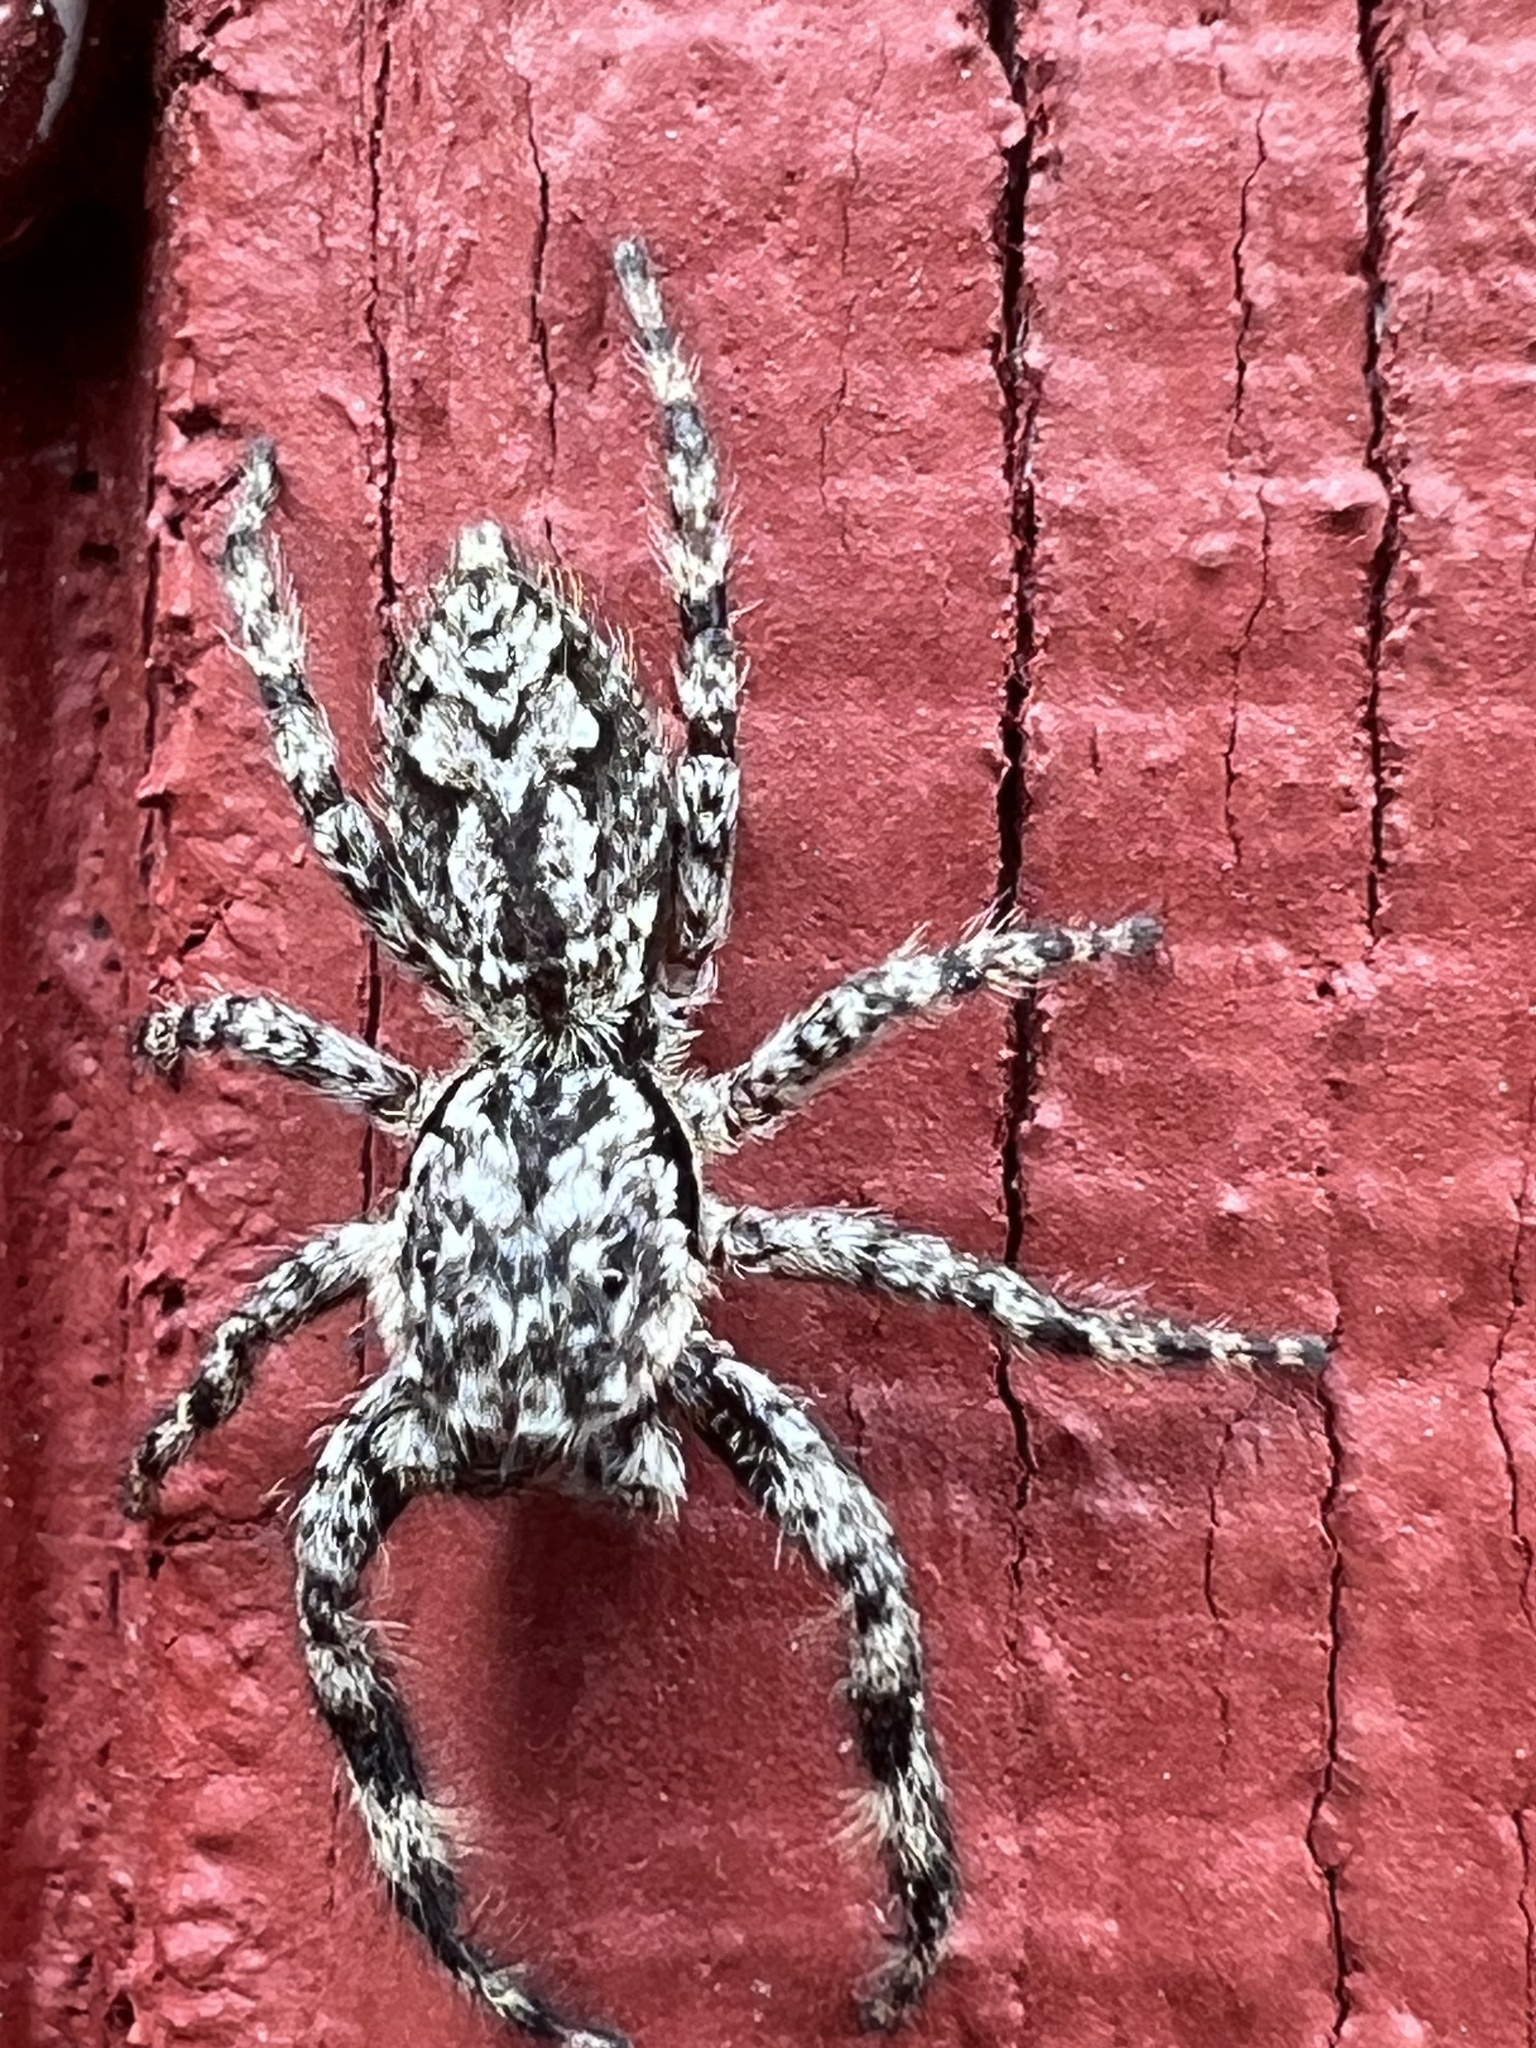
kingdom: Animalia
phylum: Arthropoda
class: Arachnida
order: Araneae
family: Salticidae
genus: Platycryptus
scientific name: Platycryptus undatus
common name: Tan jumping spider
